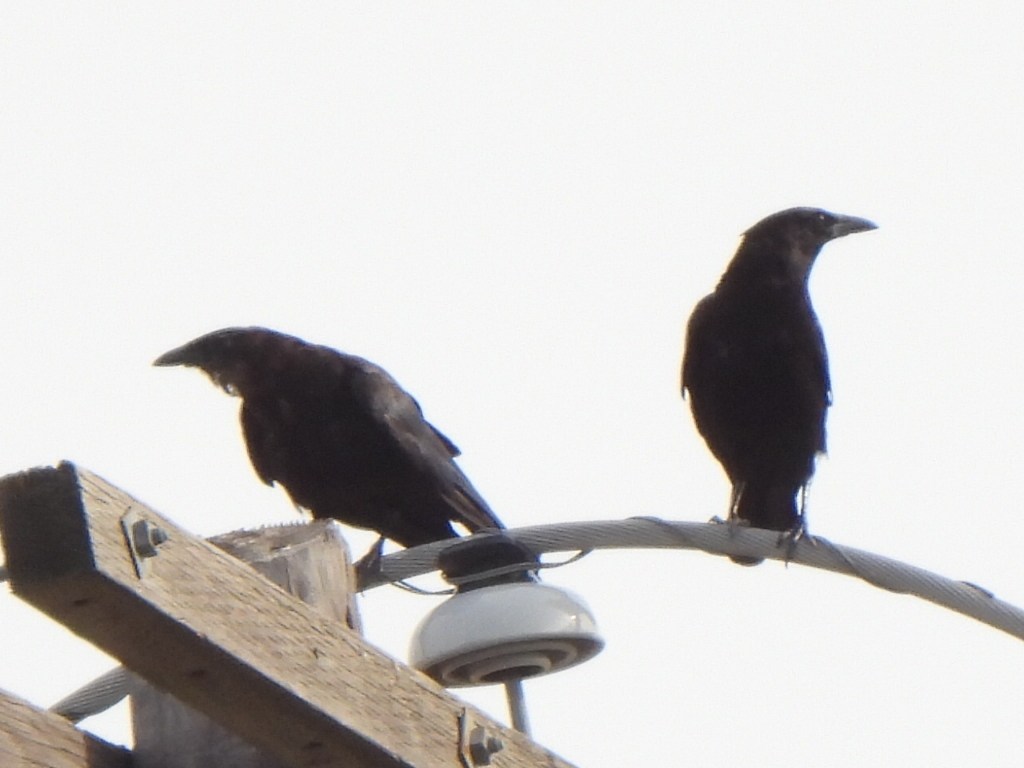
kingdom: Animalia
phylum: Chordata
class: Aves
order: Passeriformes
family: Corvidae
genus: Corvus
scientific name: Corvus brachyrhynchos
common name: American crow
